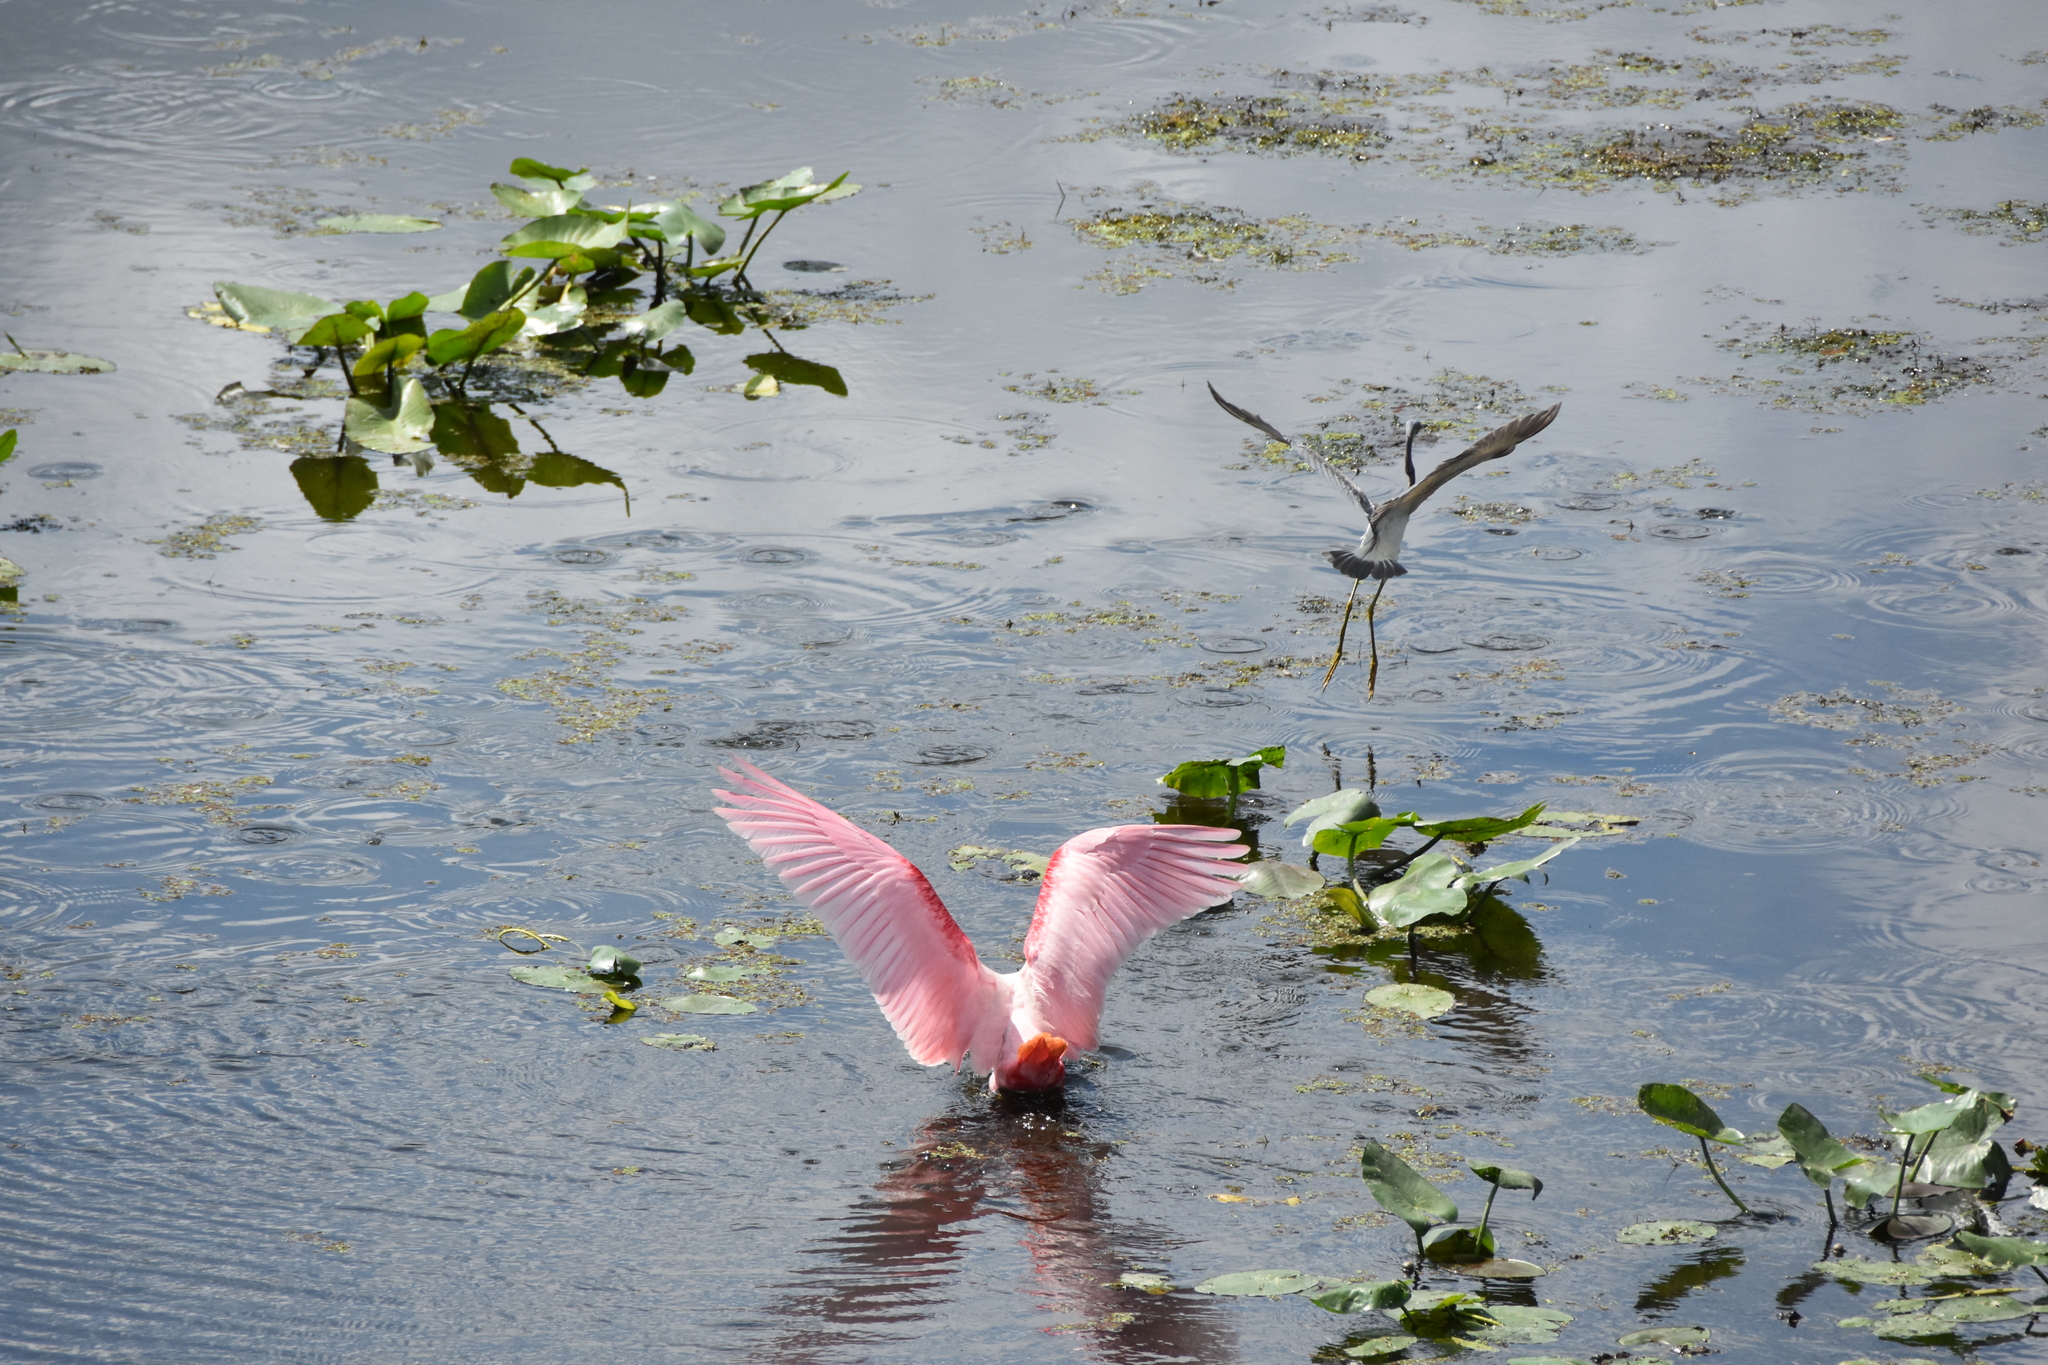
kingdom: Animalia
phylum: Chordata
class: Aves
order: Pelecaniformes
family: Ardeidae
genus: Ardea
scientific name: Ardea herodias
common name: Great blue heron
